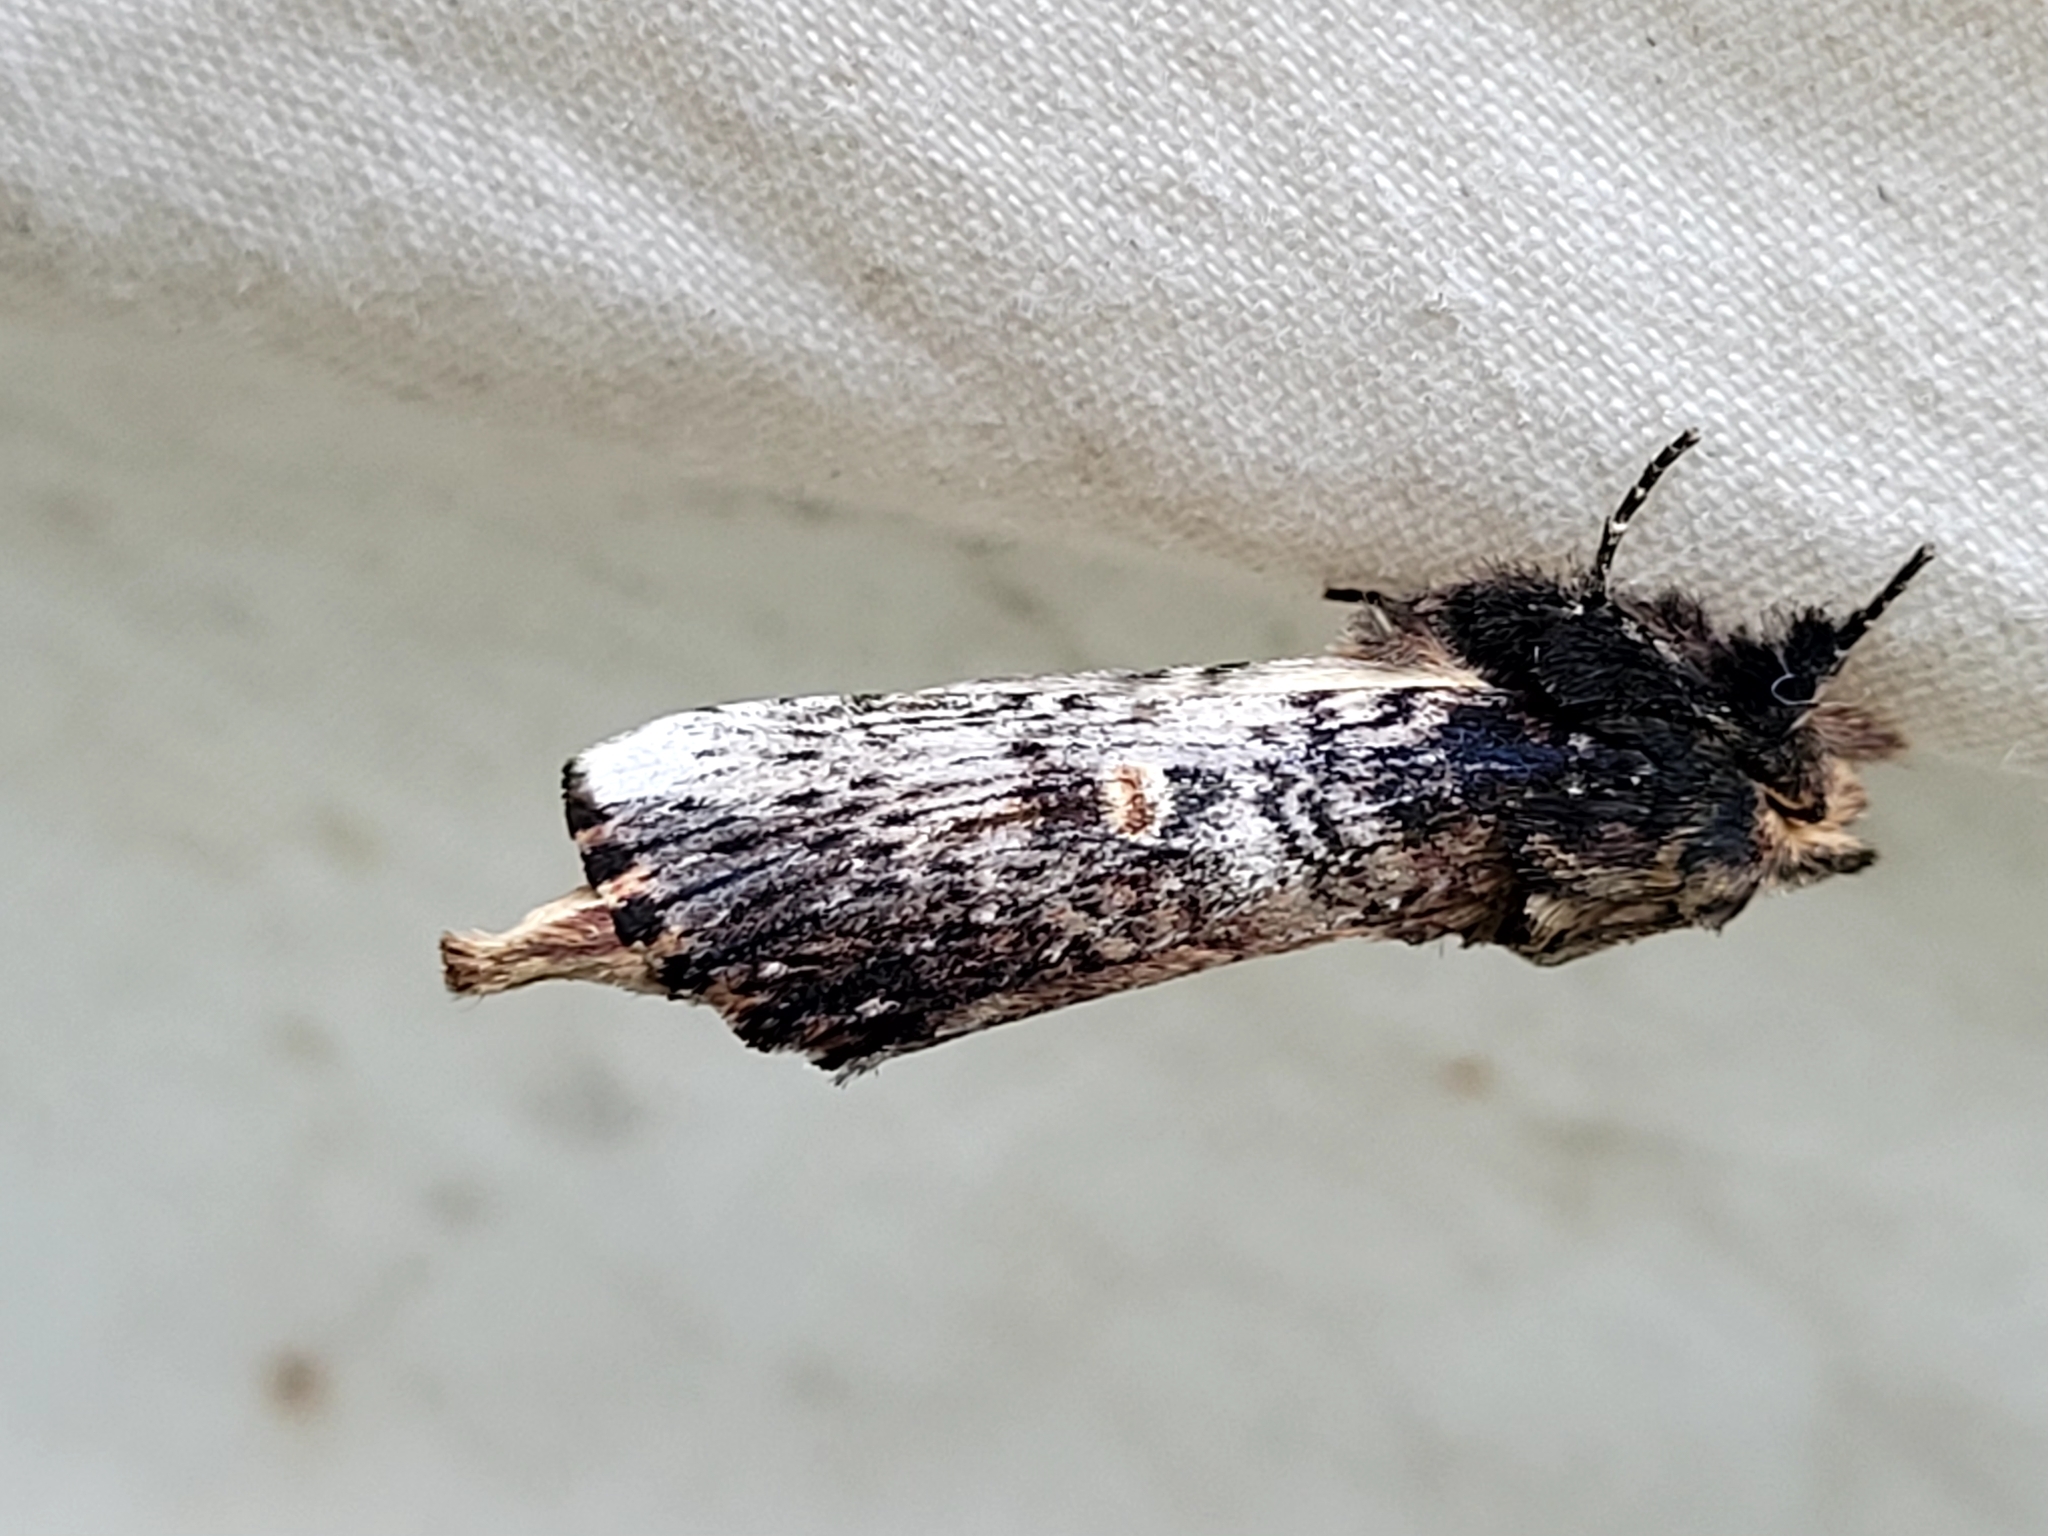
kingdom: Animalia
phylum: Arthropoda
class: Insecta
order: Lepidoptera
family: Notodontidae
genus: Schizura
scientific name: Schizura ipomaeae
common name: Morning-glory prominent
